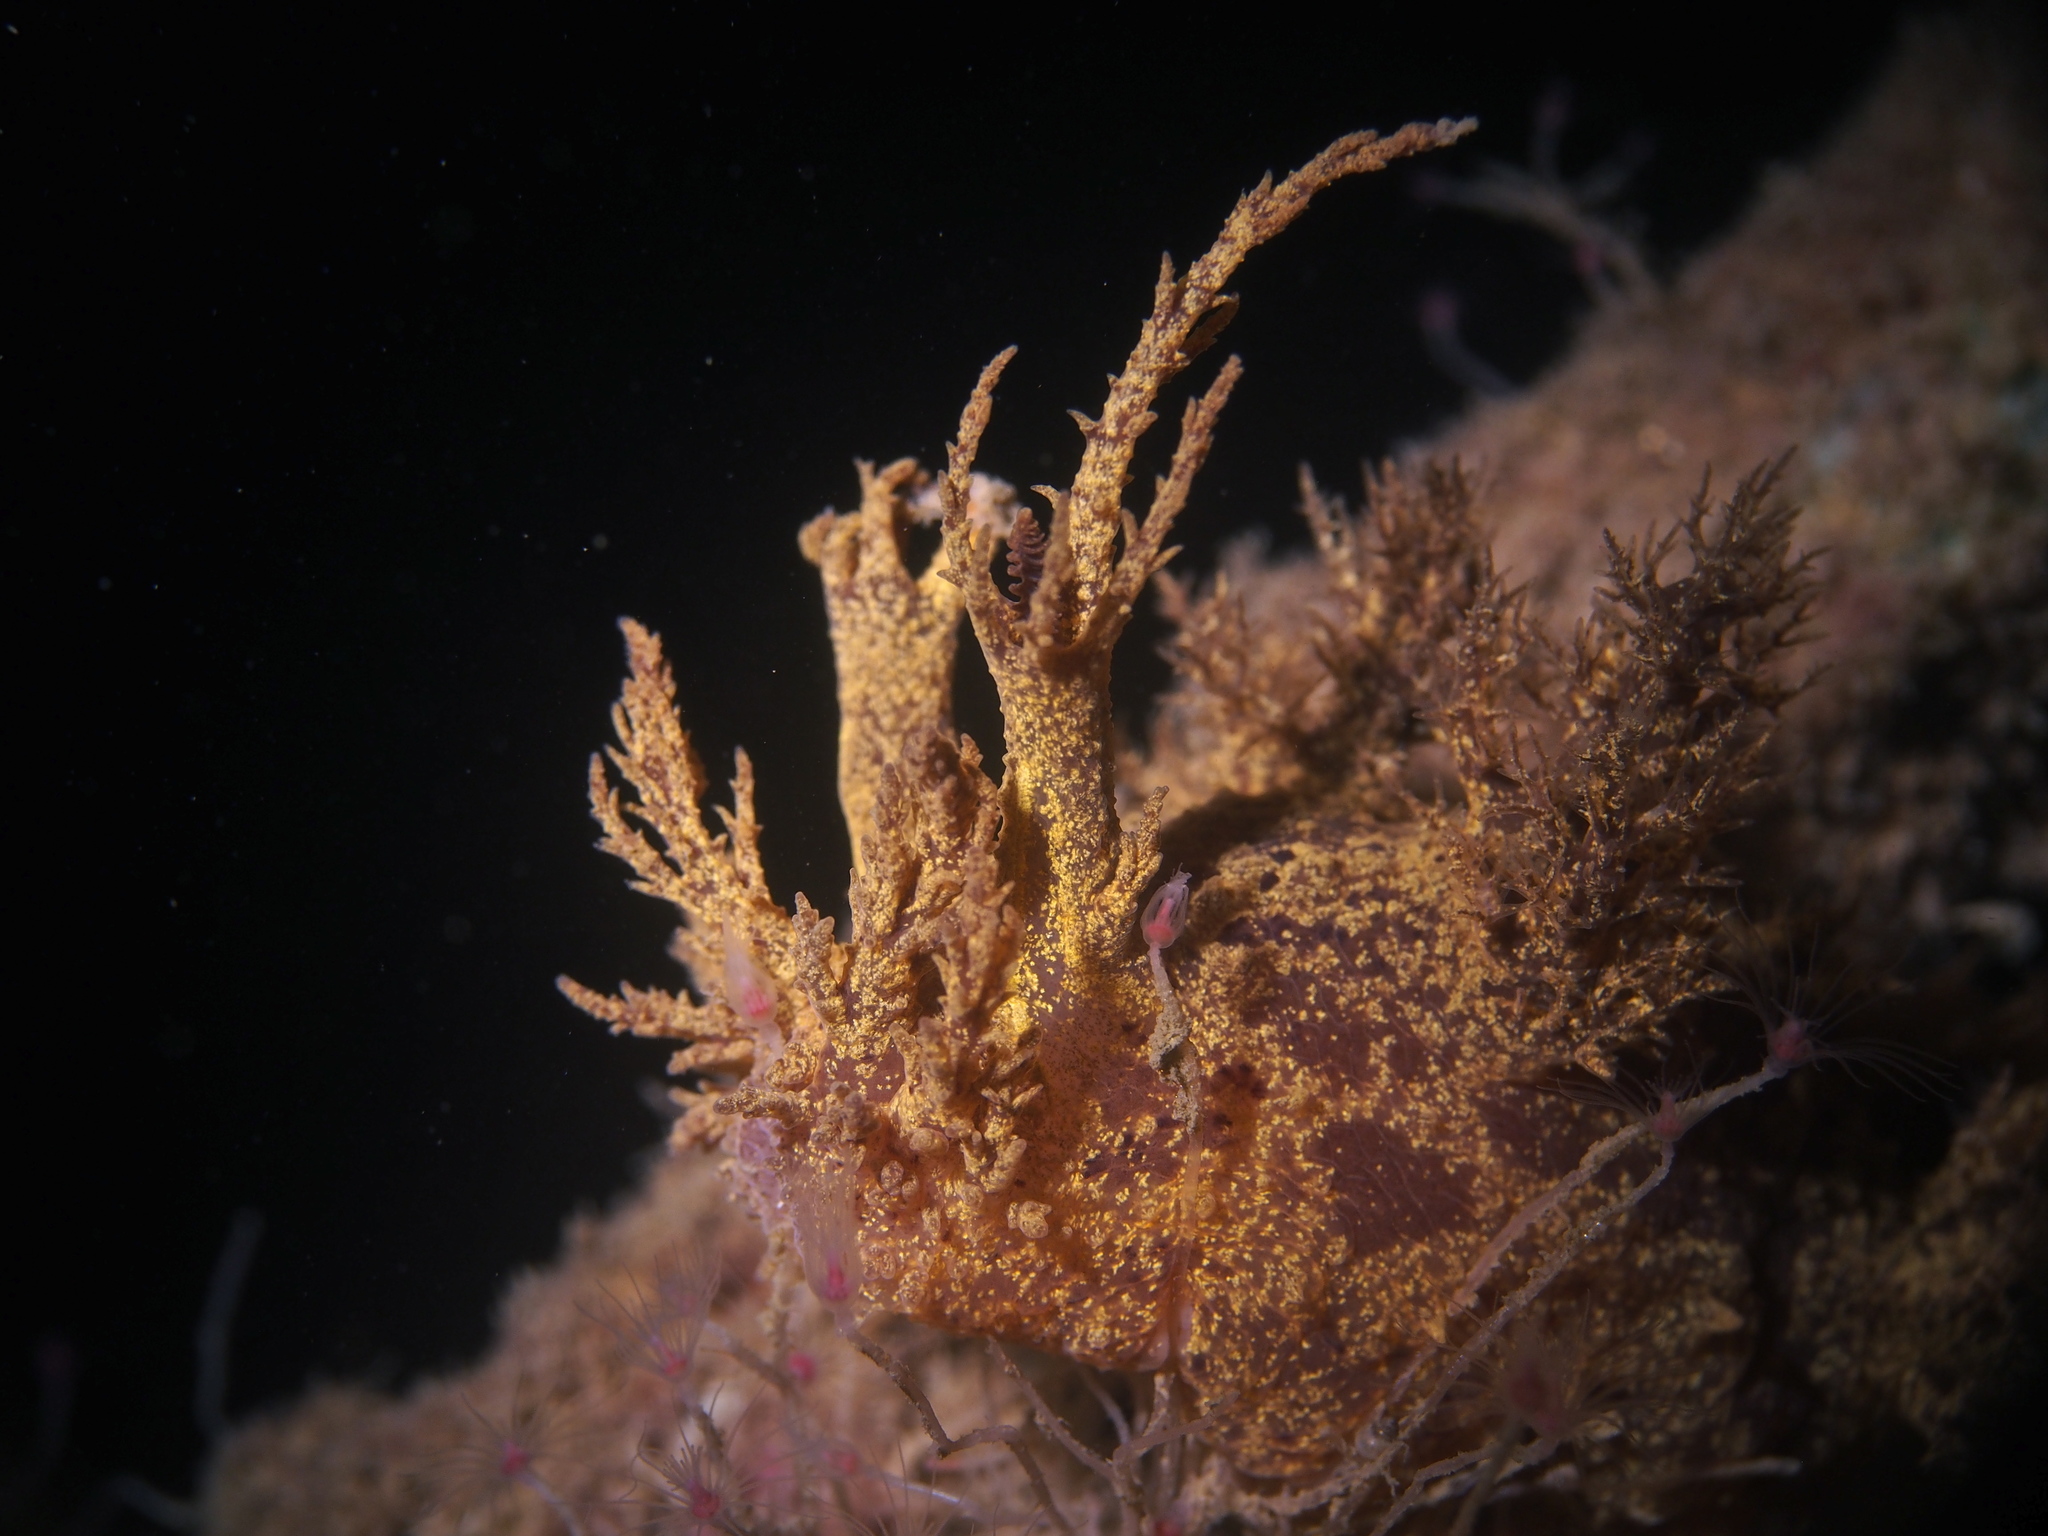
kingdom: Animalia
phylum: Mollusca
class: Gastropoda
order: Nudibranchia
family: Dendronotidae
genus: Dendronotus
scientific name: Dendronotus europaeus
